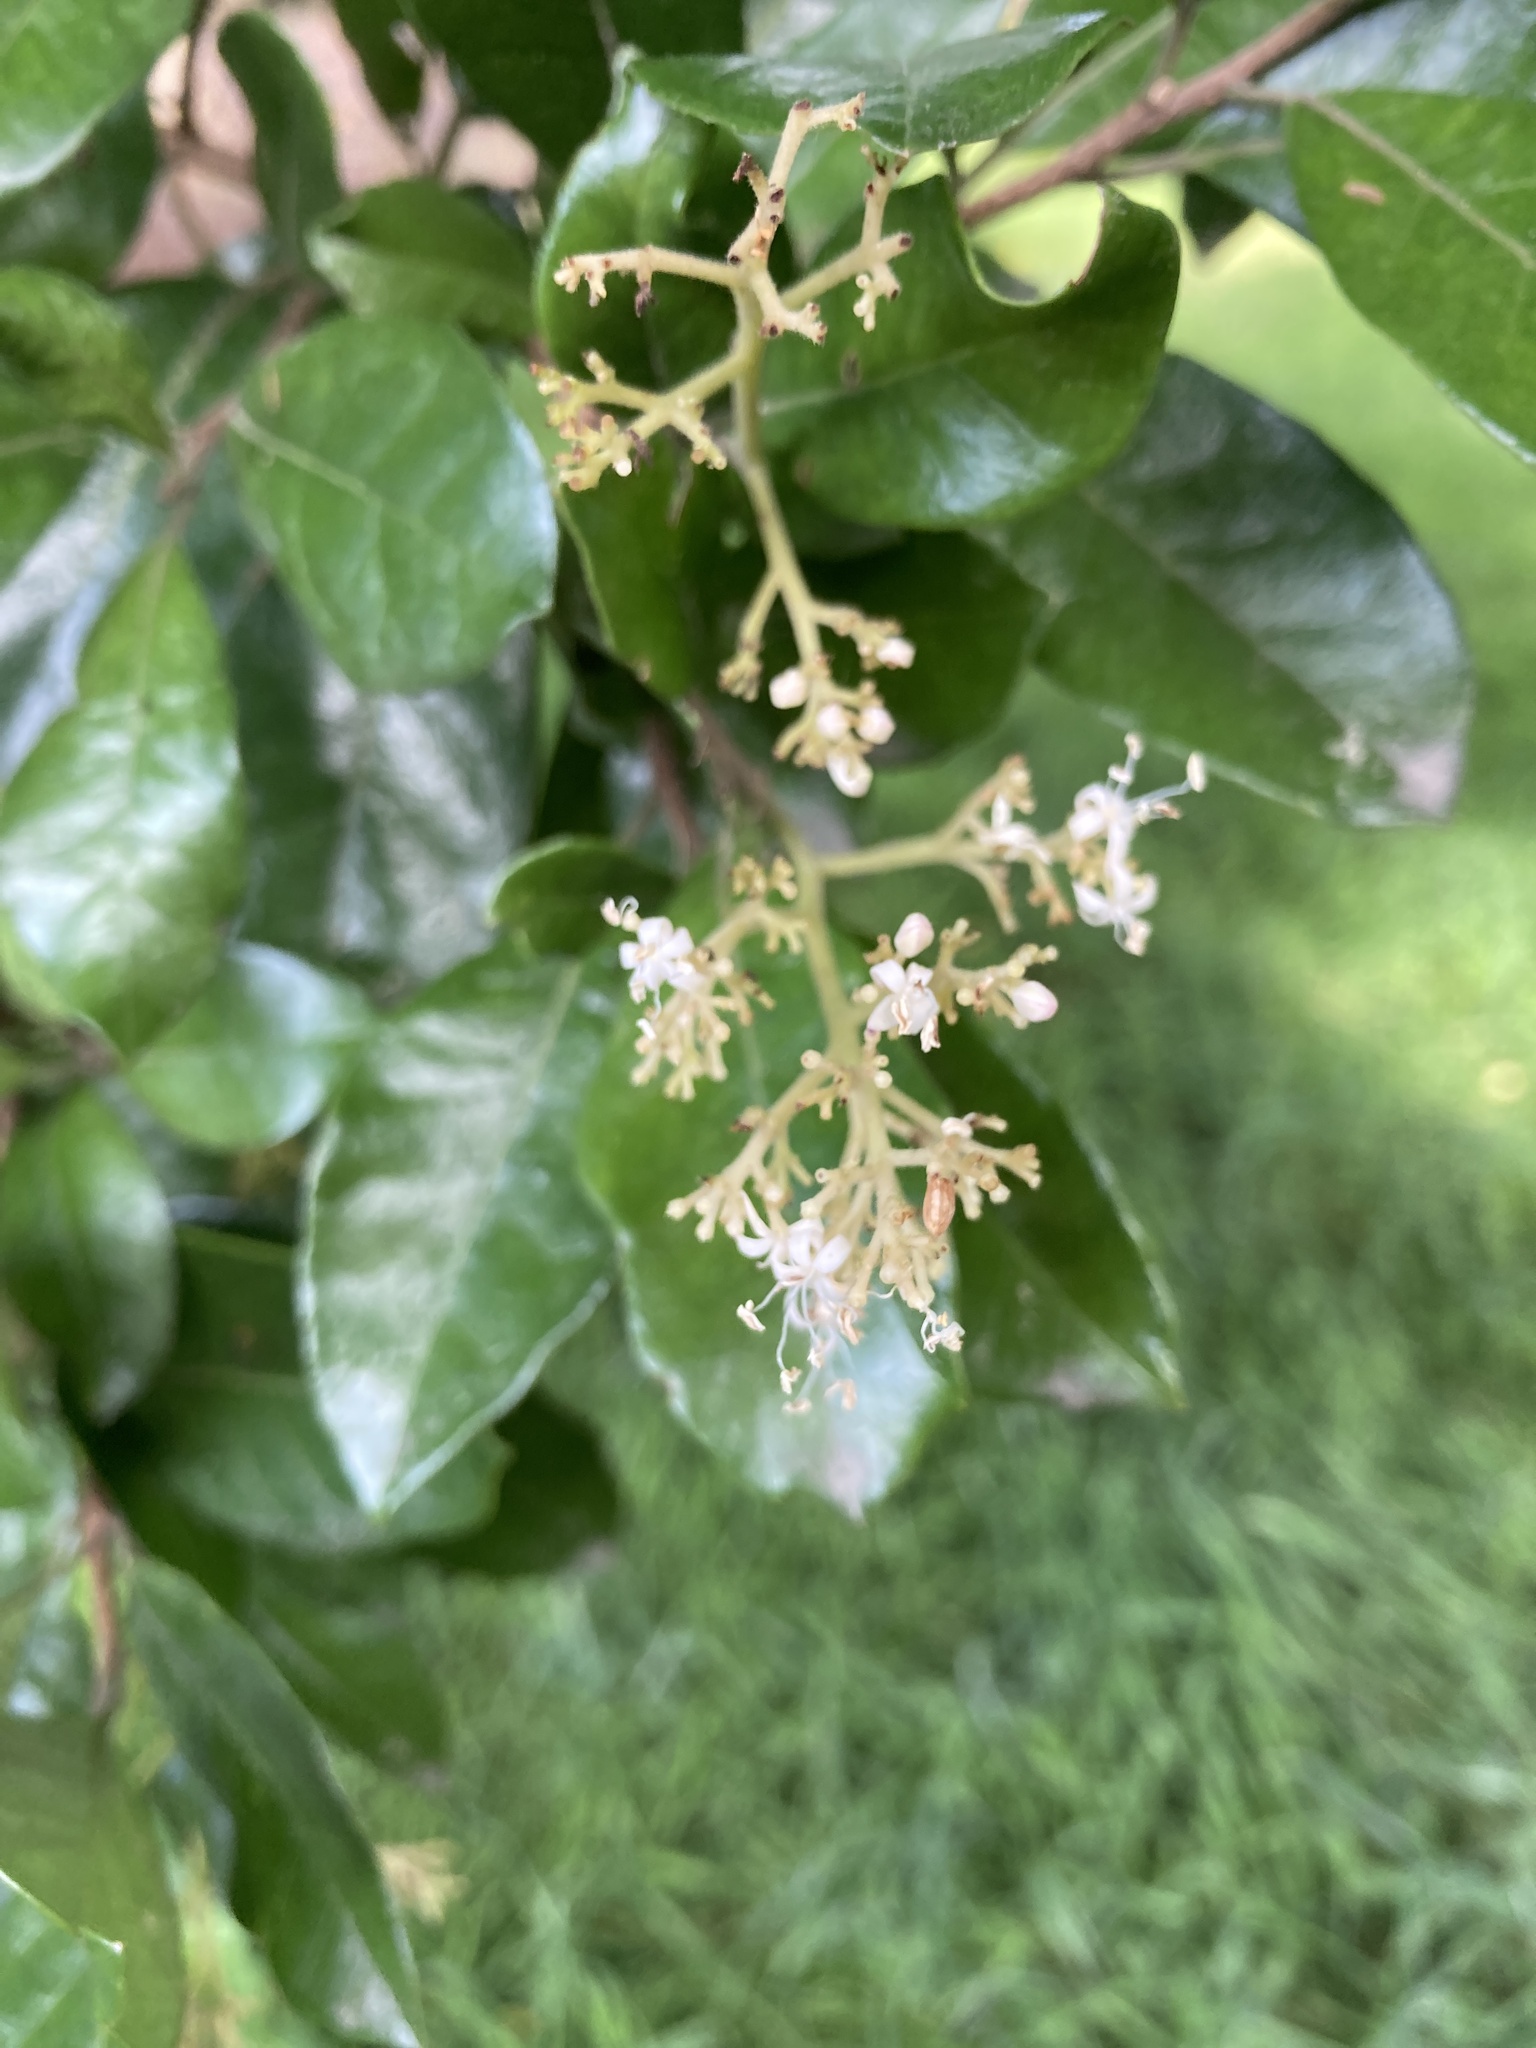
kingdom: Plantae
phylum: Tracheophyta
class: Magnoliopsida
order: Apiales
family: Pennantiaceae
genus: Pennantia
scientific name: Pennantia corymbosa
